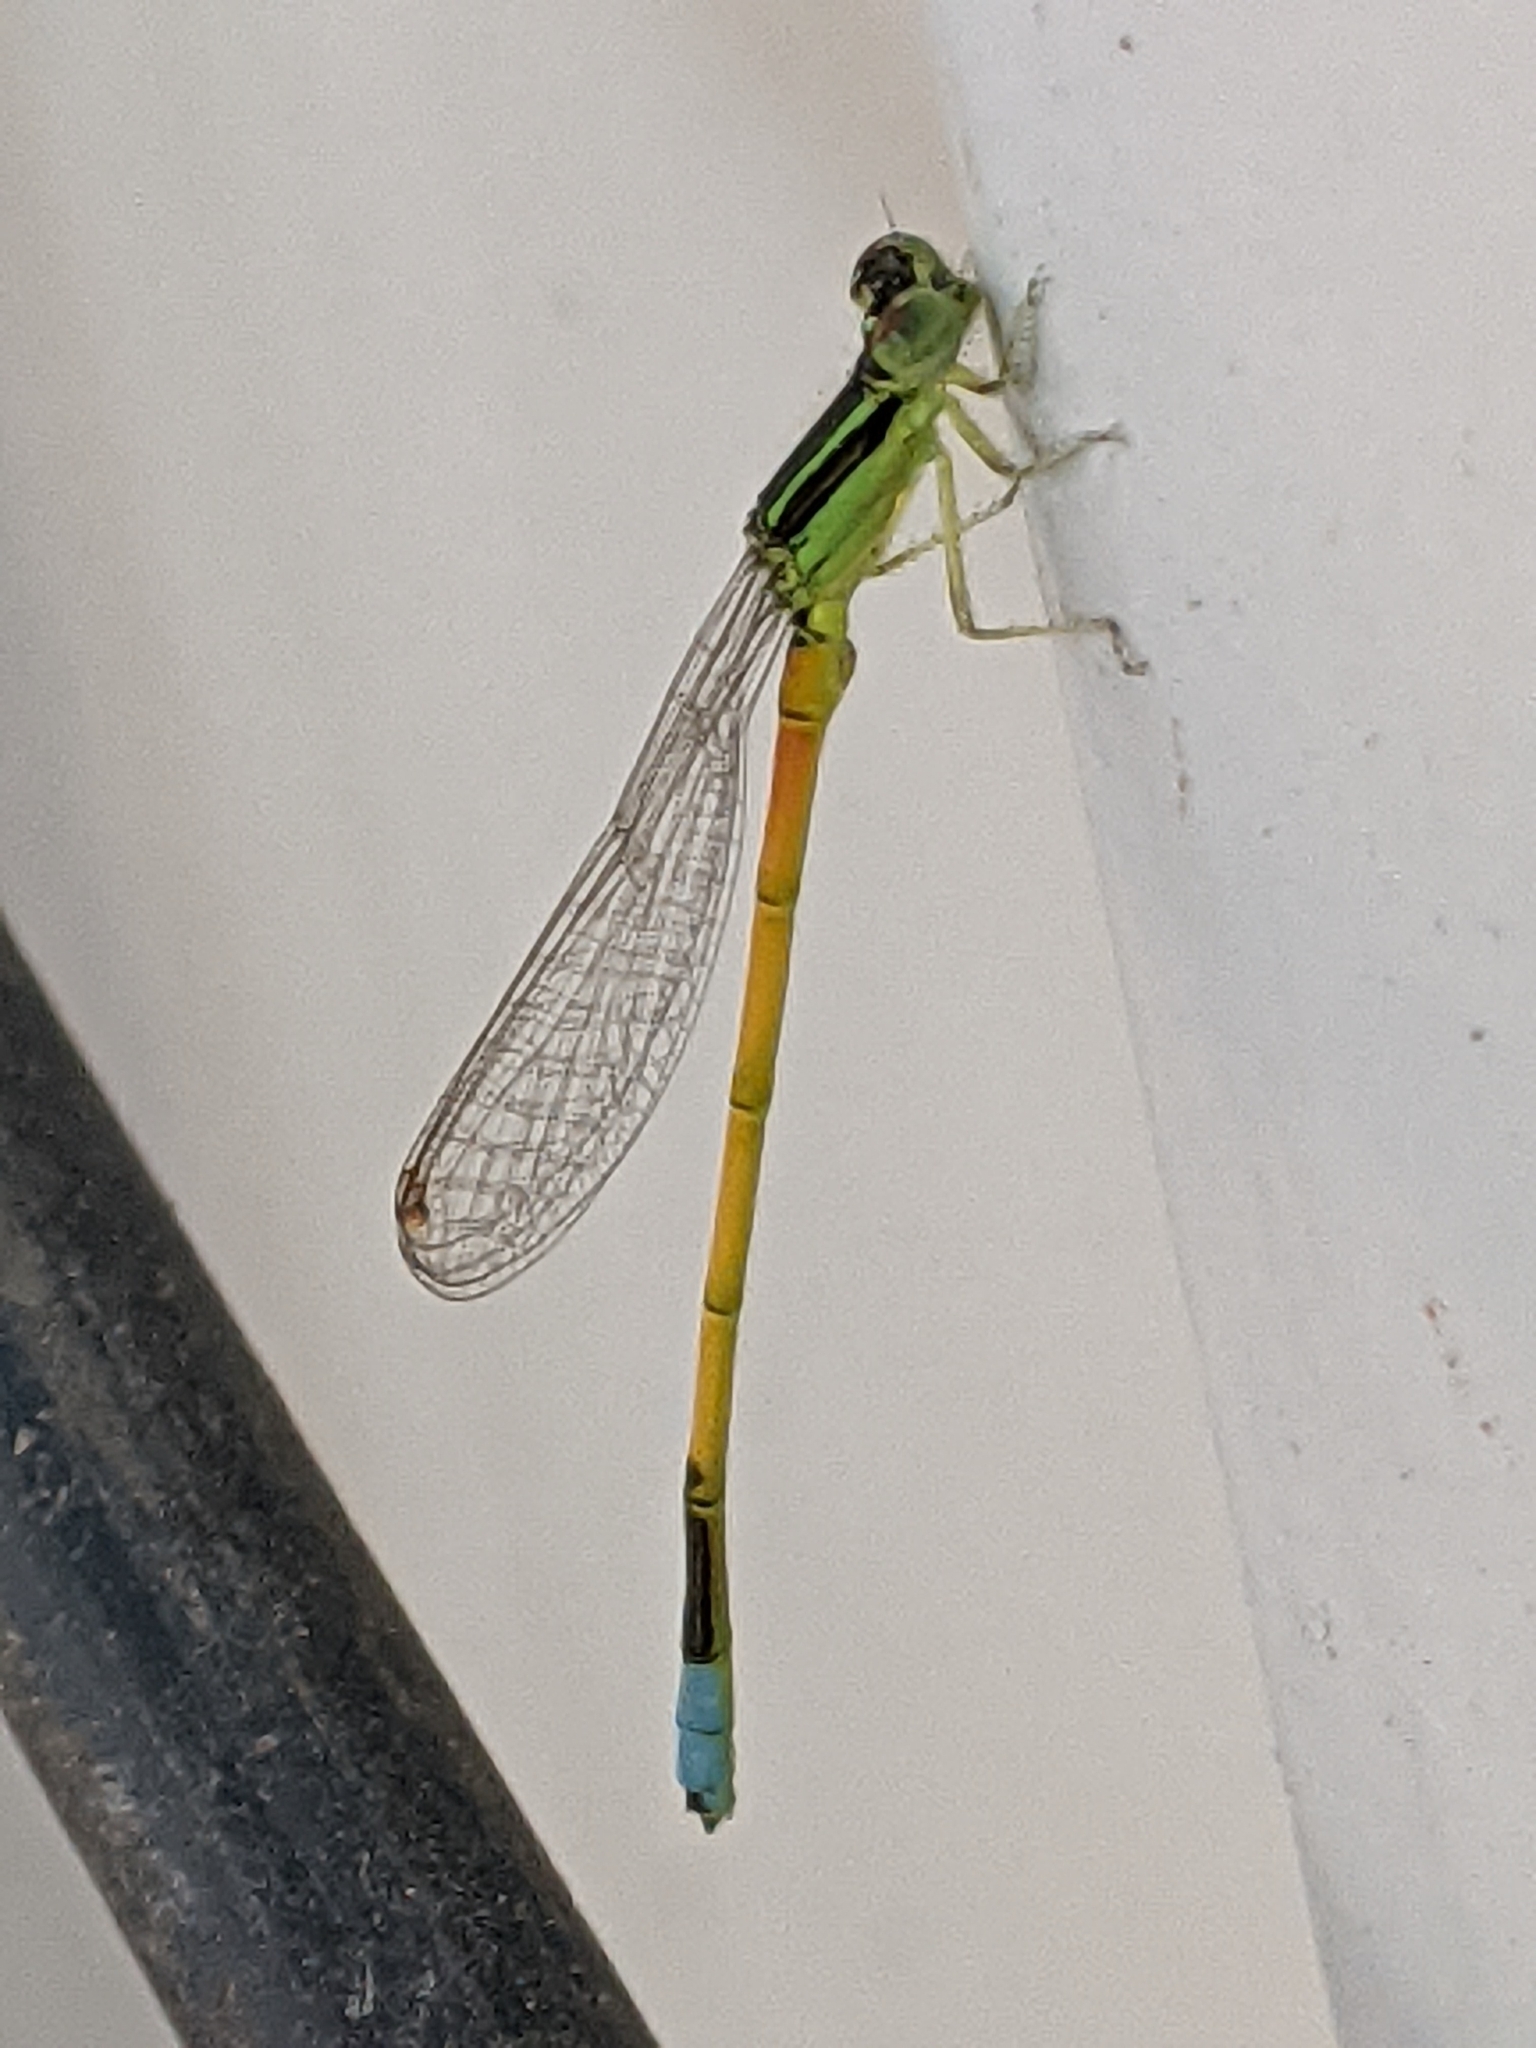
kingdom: Animalia
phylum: Arthropoda
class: Insecta
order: Odonata
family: Coenagrionidae
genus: Ischnura
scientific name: Ischnura rubilio
